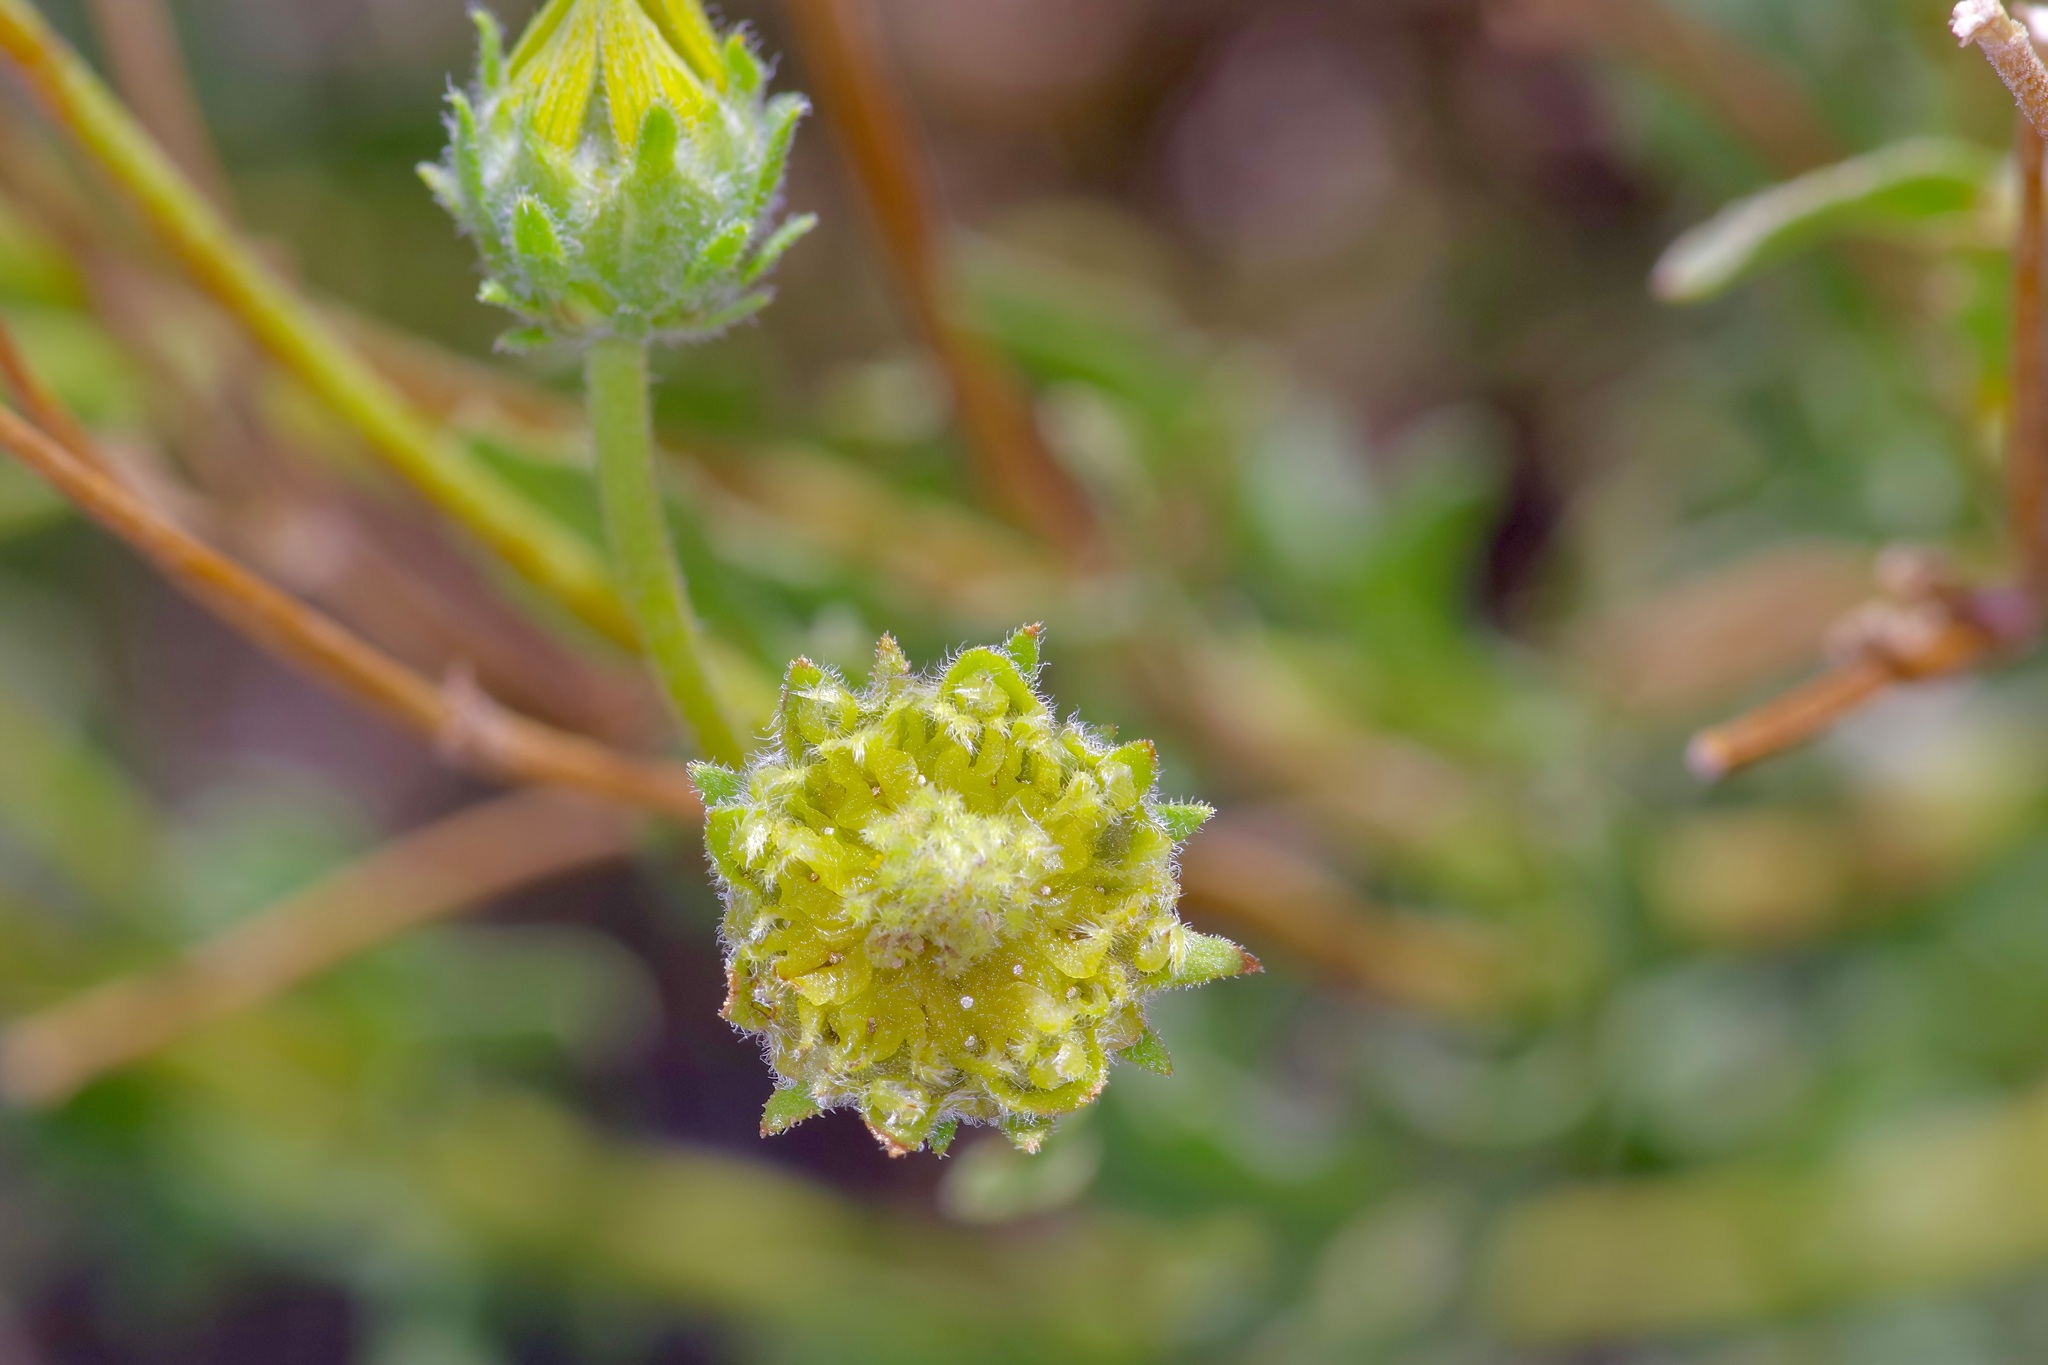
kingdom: Plantae
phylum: Tracheophyta
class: Magnoliopsida
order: Asterales
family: Asteraceae
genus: Engelmannia
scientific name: Engelmannia peristenia
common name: Engelmann's daisy
